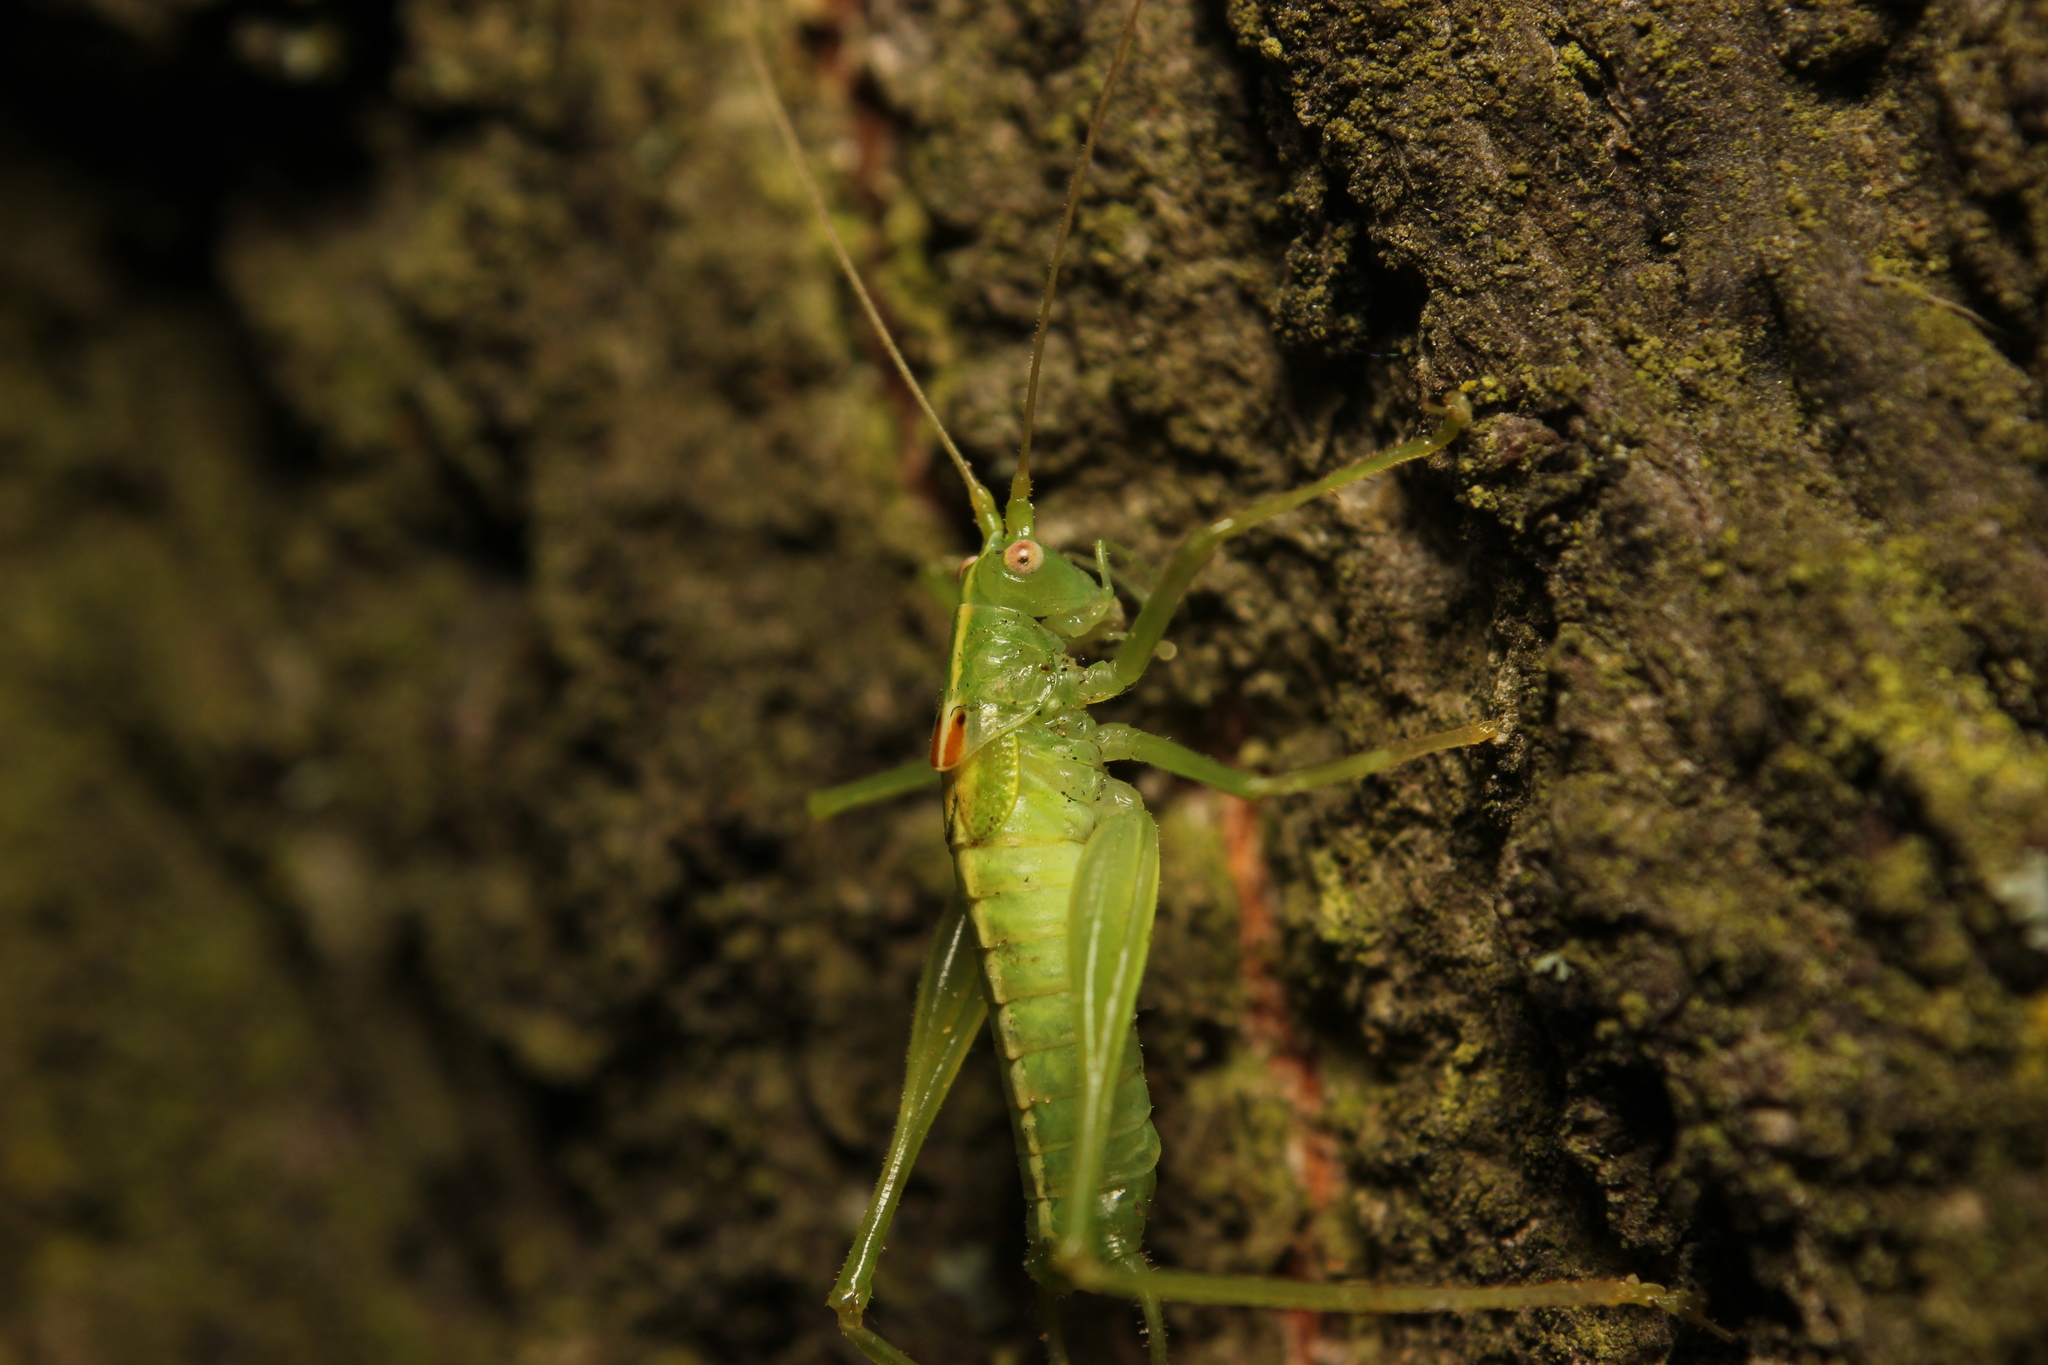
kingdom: Animalia
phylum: Arthropoda
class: Insecta
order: Orthoptera
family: Tettigoniidae
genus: Meconema
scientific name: Meconema meridionale
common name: Southern oak bush-cricket
